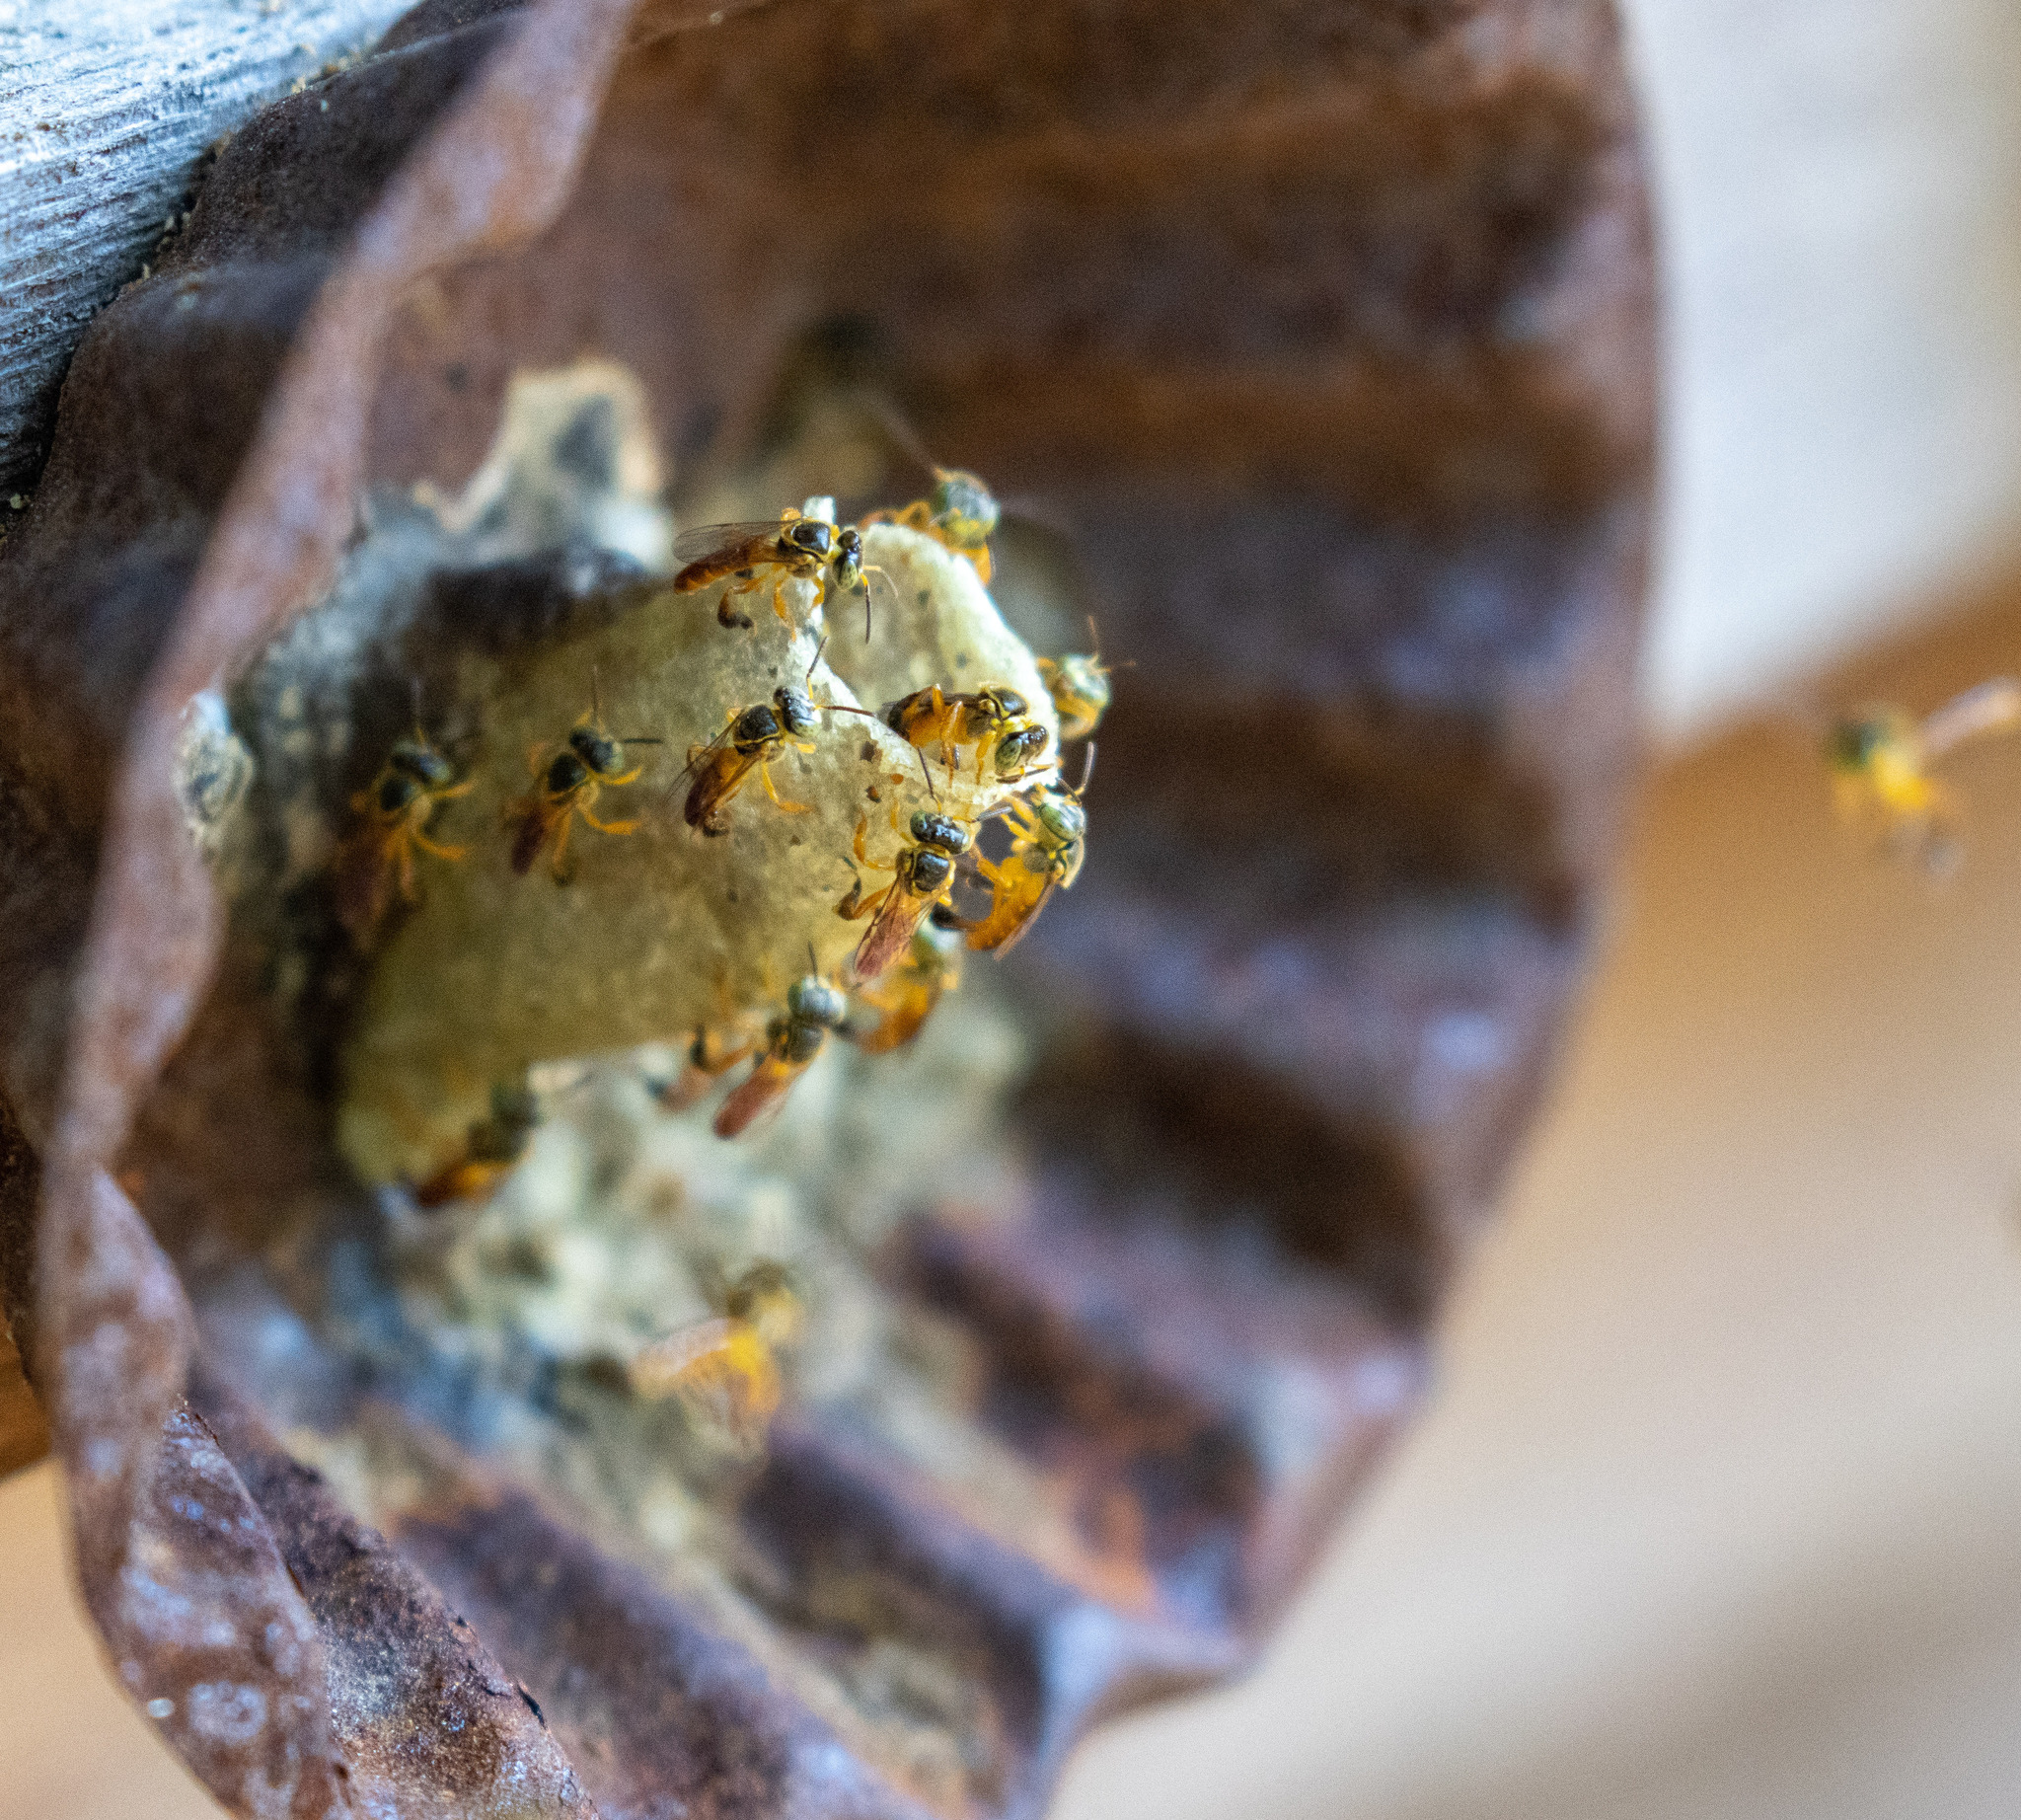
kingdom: Animalia
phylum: Arthropoda
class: Insecta
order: Hymenoptera
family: Apidae
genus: Tetragonisca
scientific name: Tetragonisca angustula
